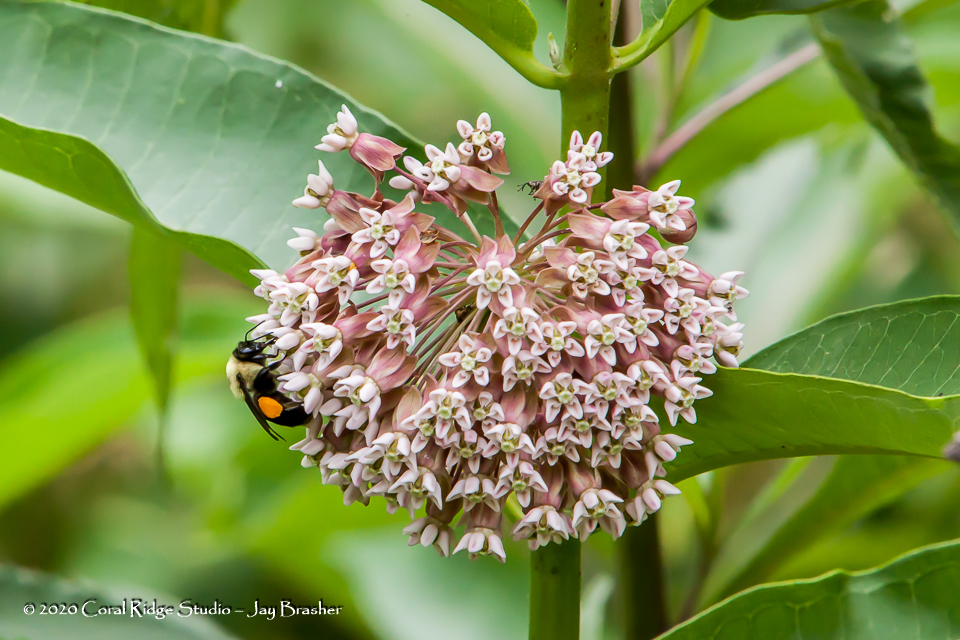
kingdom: Plantae
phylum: Tracheophyta
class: Magnoliopsida
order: Gentianales
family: Apocynaceae
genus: Asclepias
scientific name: Asclepias syriaca
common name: Common milkweed
